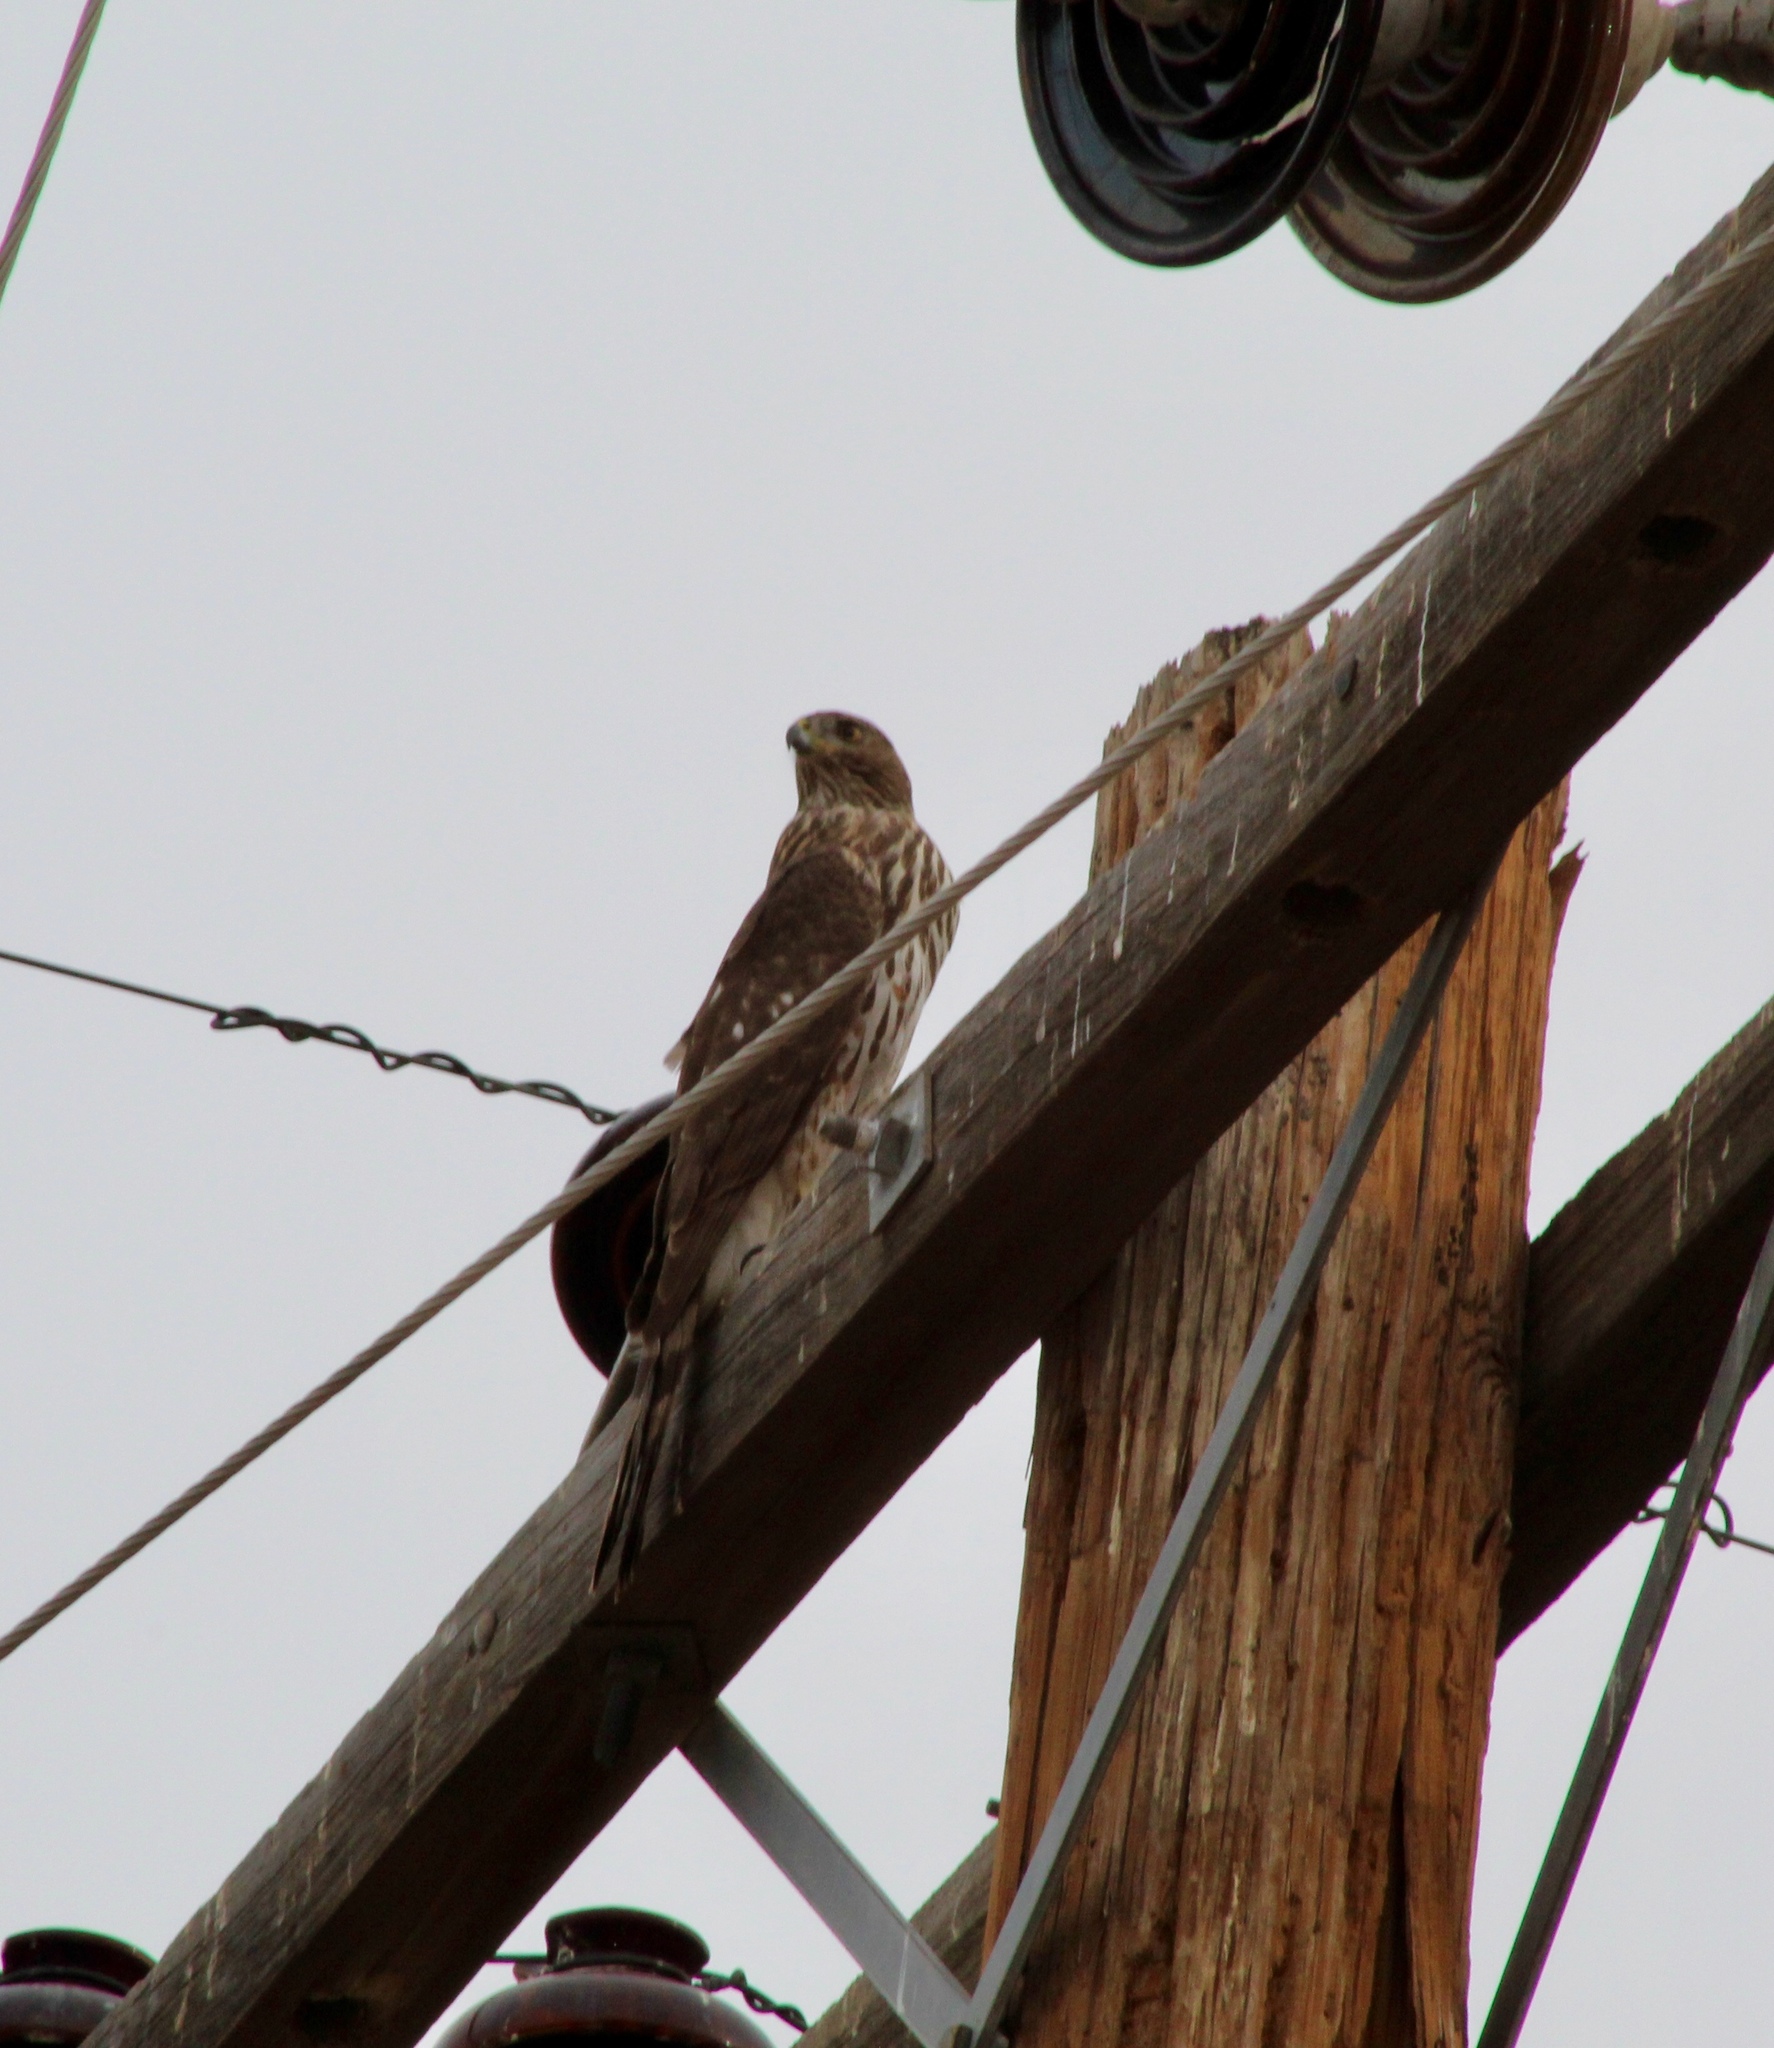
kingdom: Animalia
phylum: Chordata
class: Aves
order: Accipitriformes
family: Accipitridae
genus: Accipiter
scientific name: Accipiter cooperii
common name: Cooper's hawk
